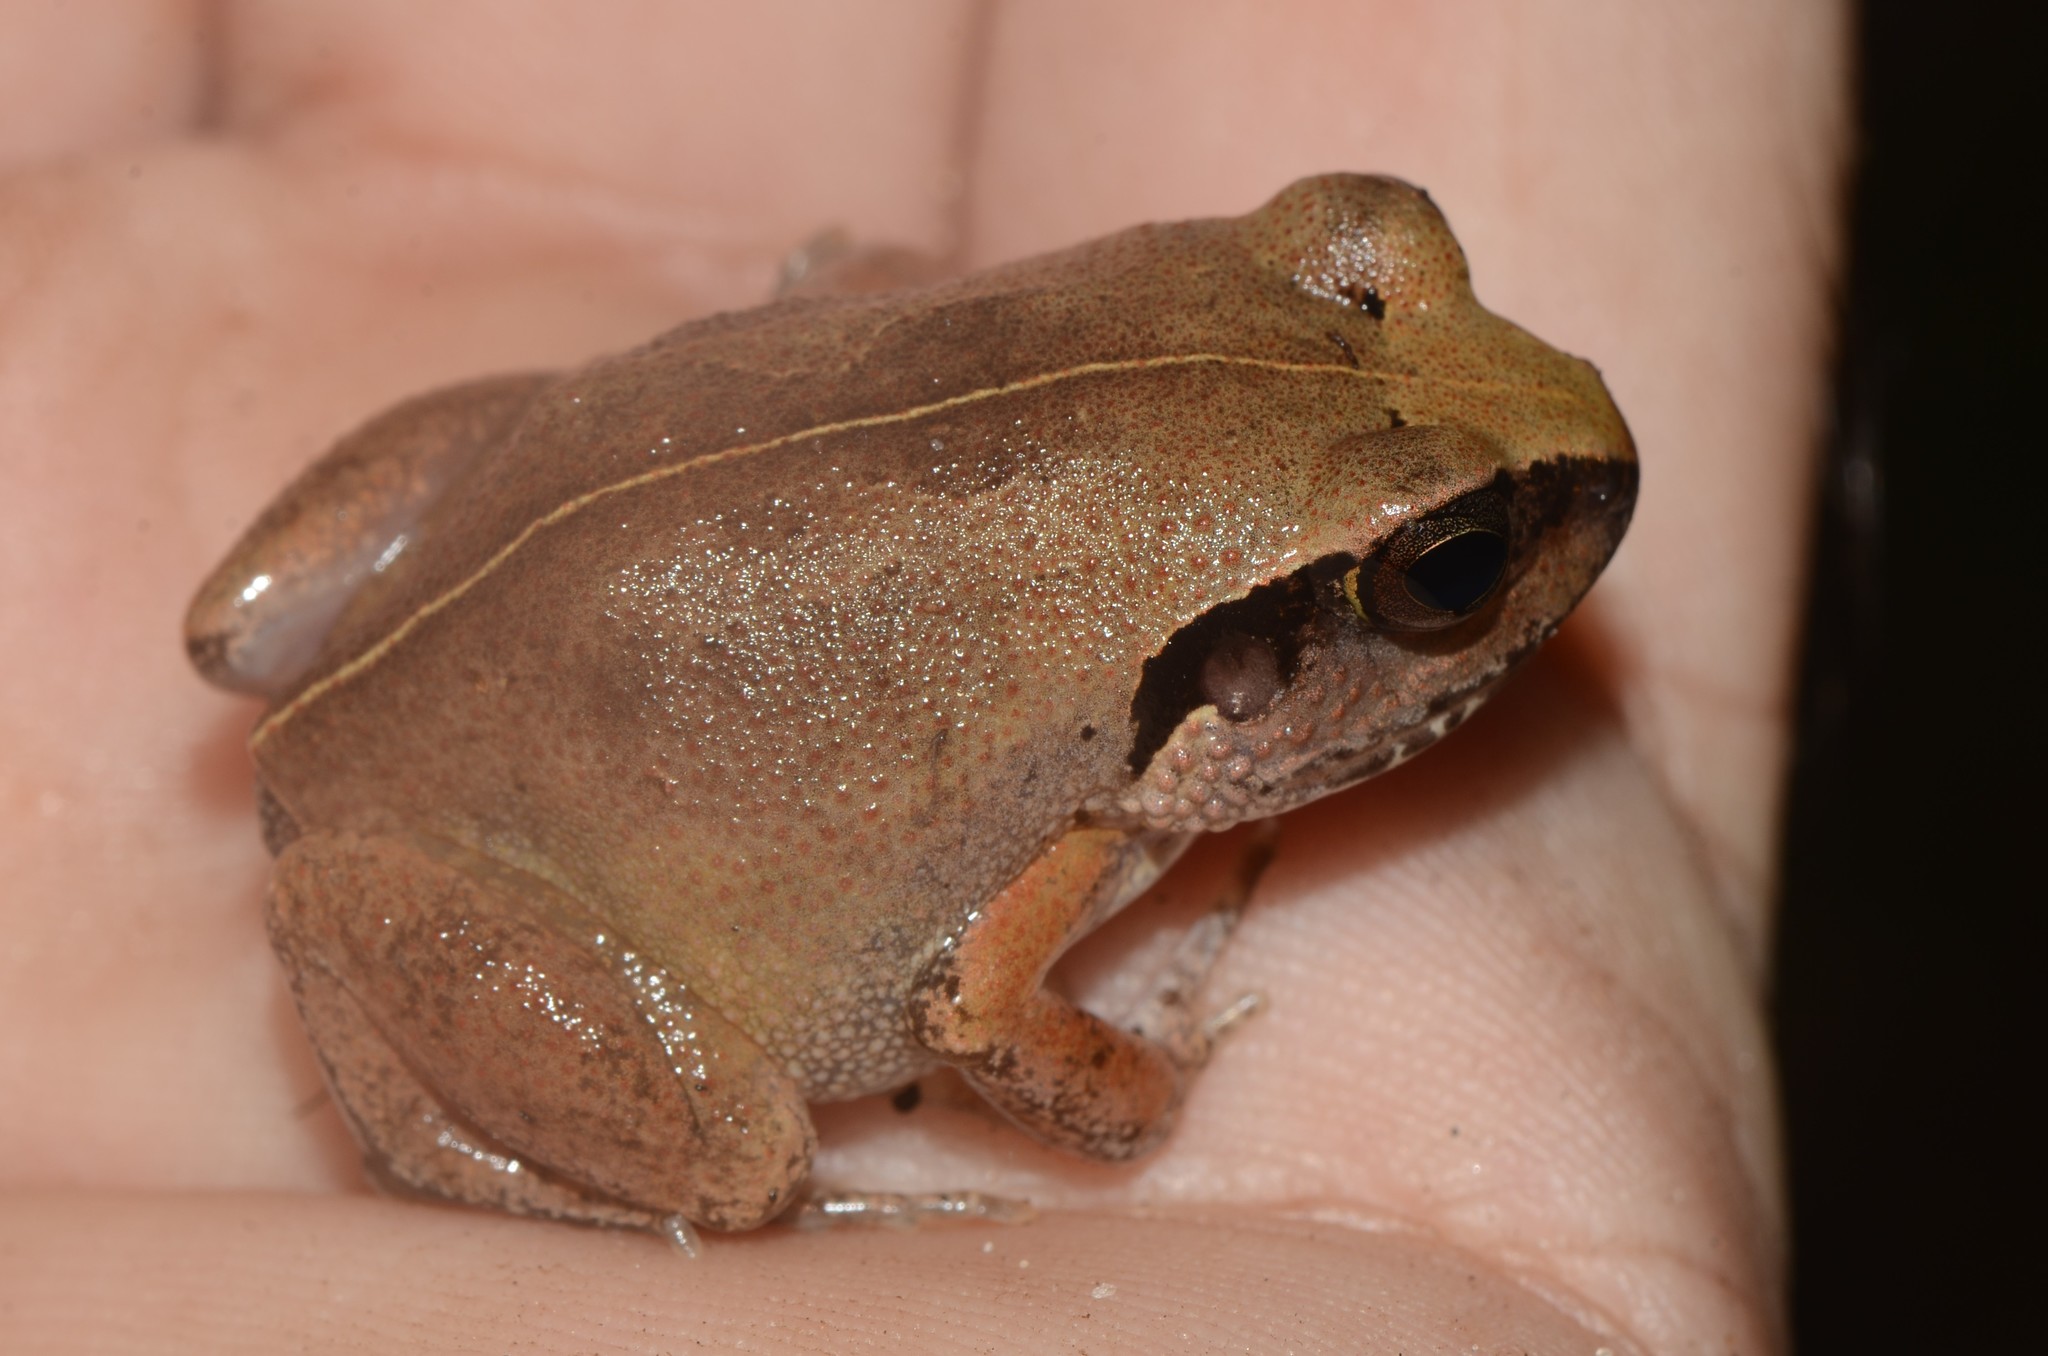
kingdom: Animalia
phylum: Chordata
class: Amphibia
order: Anura
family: Arthroleptidae
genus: Arthroleptis
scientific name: Arthroleptis stenodactylus
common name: Dune squeaker
